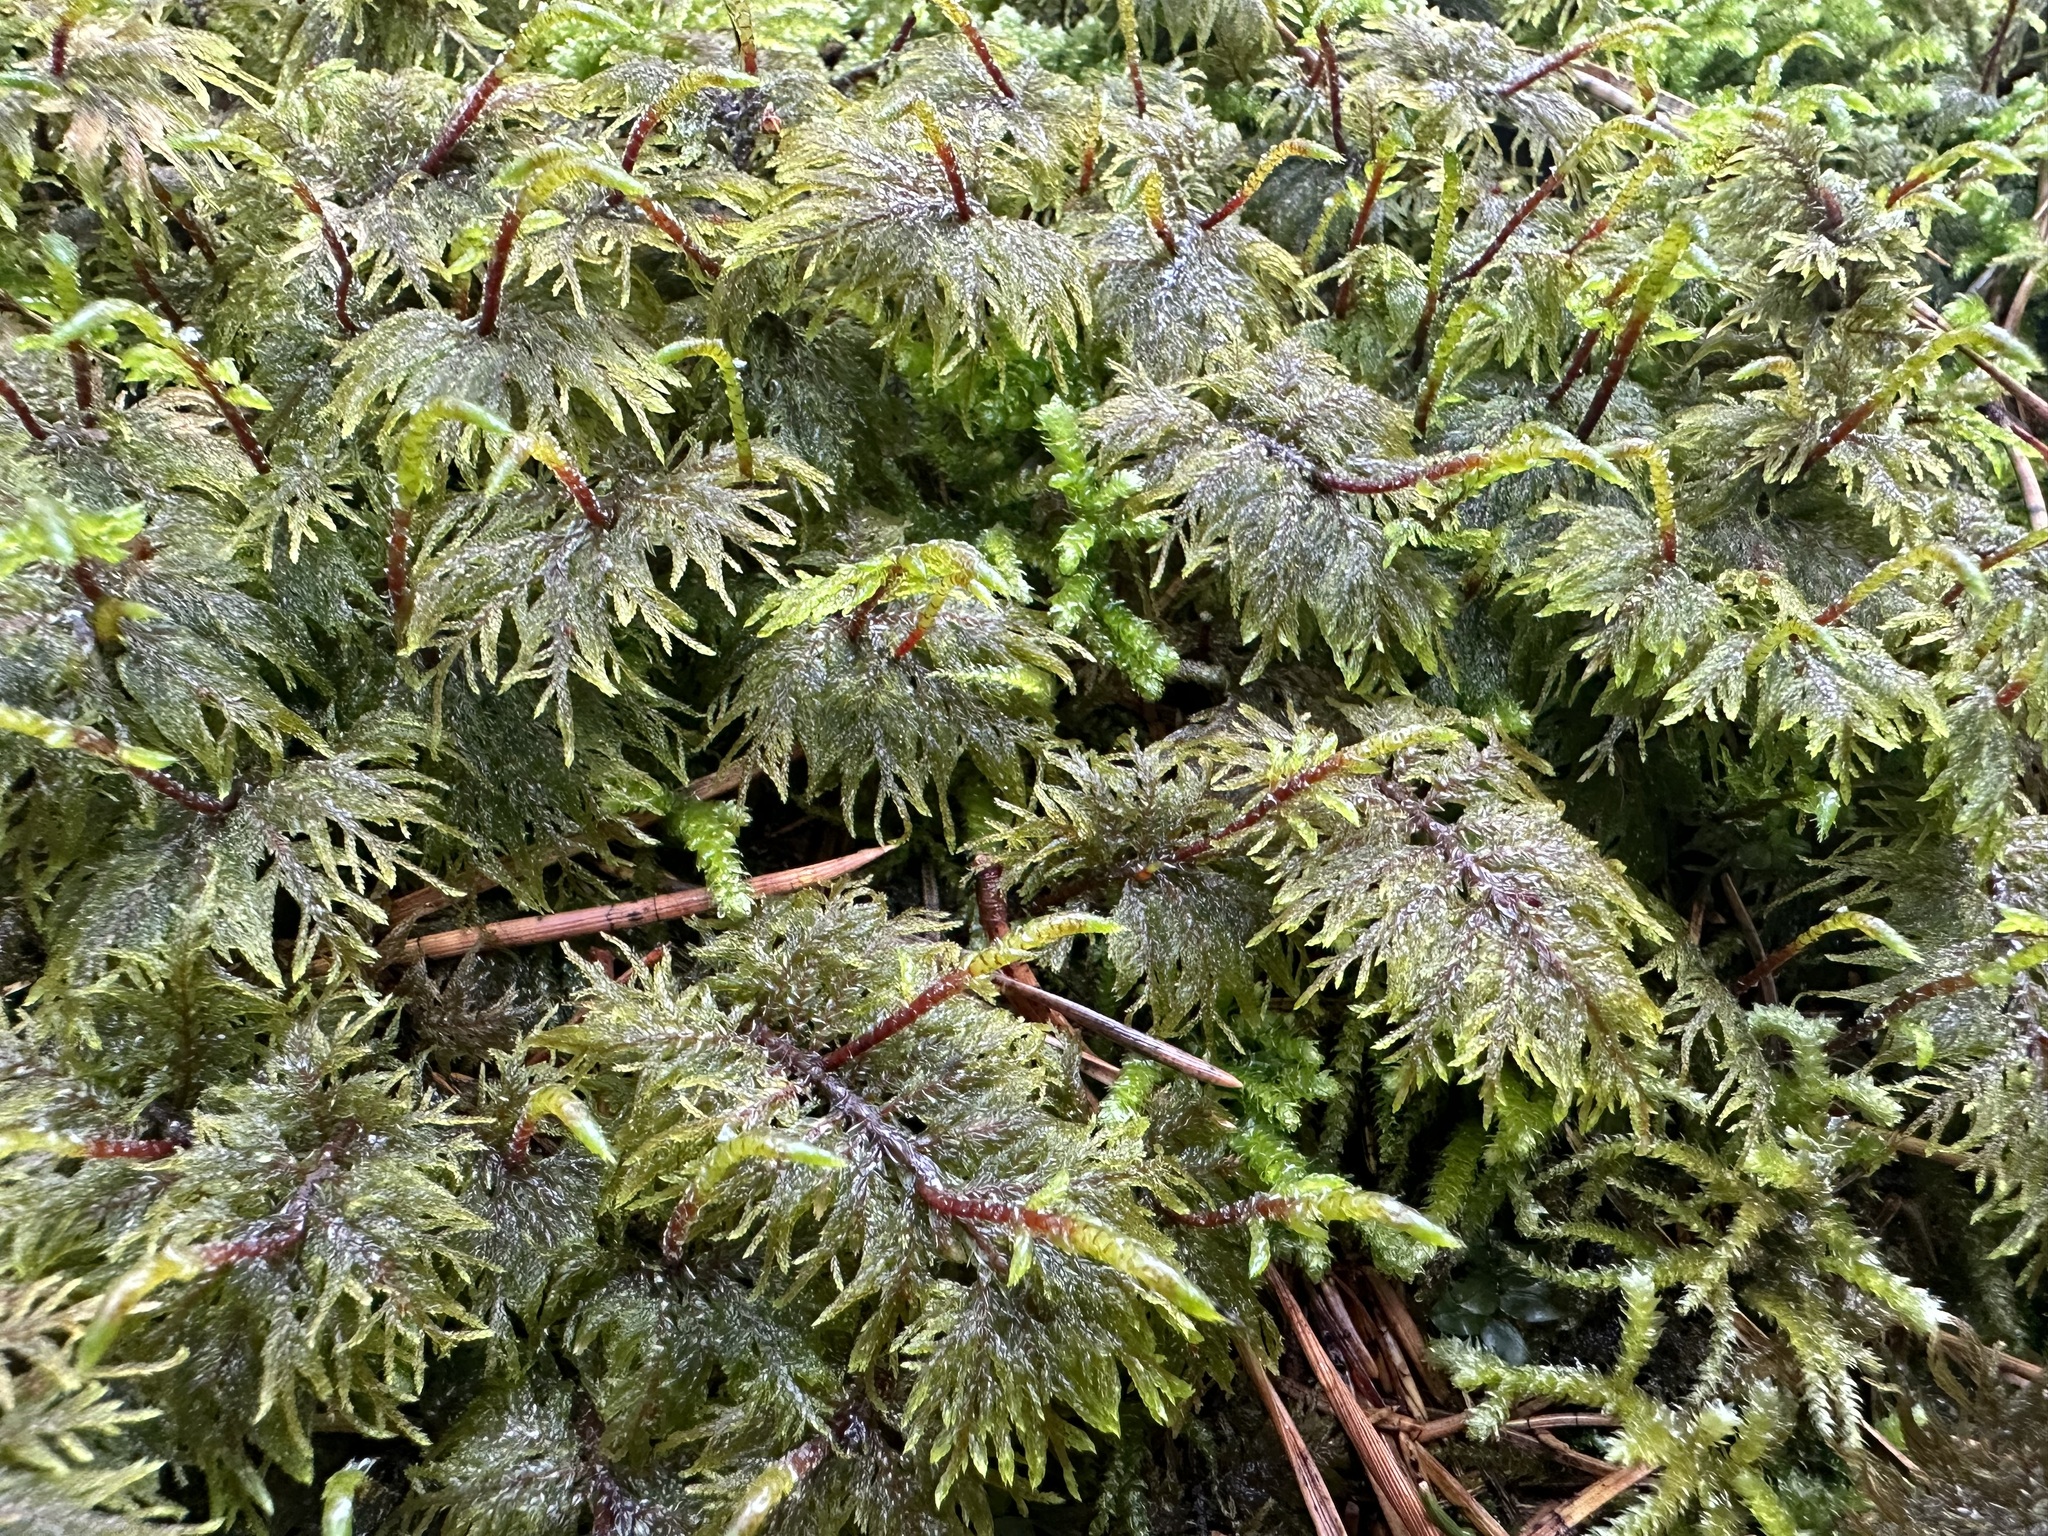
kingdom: Plantae
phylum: Bryophyta
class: Bryopsida
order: Hypnales
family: Hylocomiaceae
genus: Hylocomium
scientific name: Hylocomium splendens
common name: Stairstep moss
